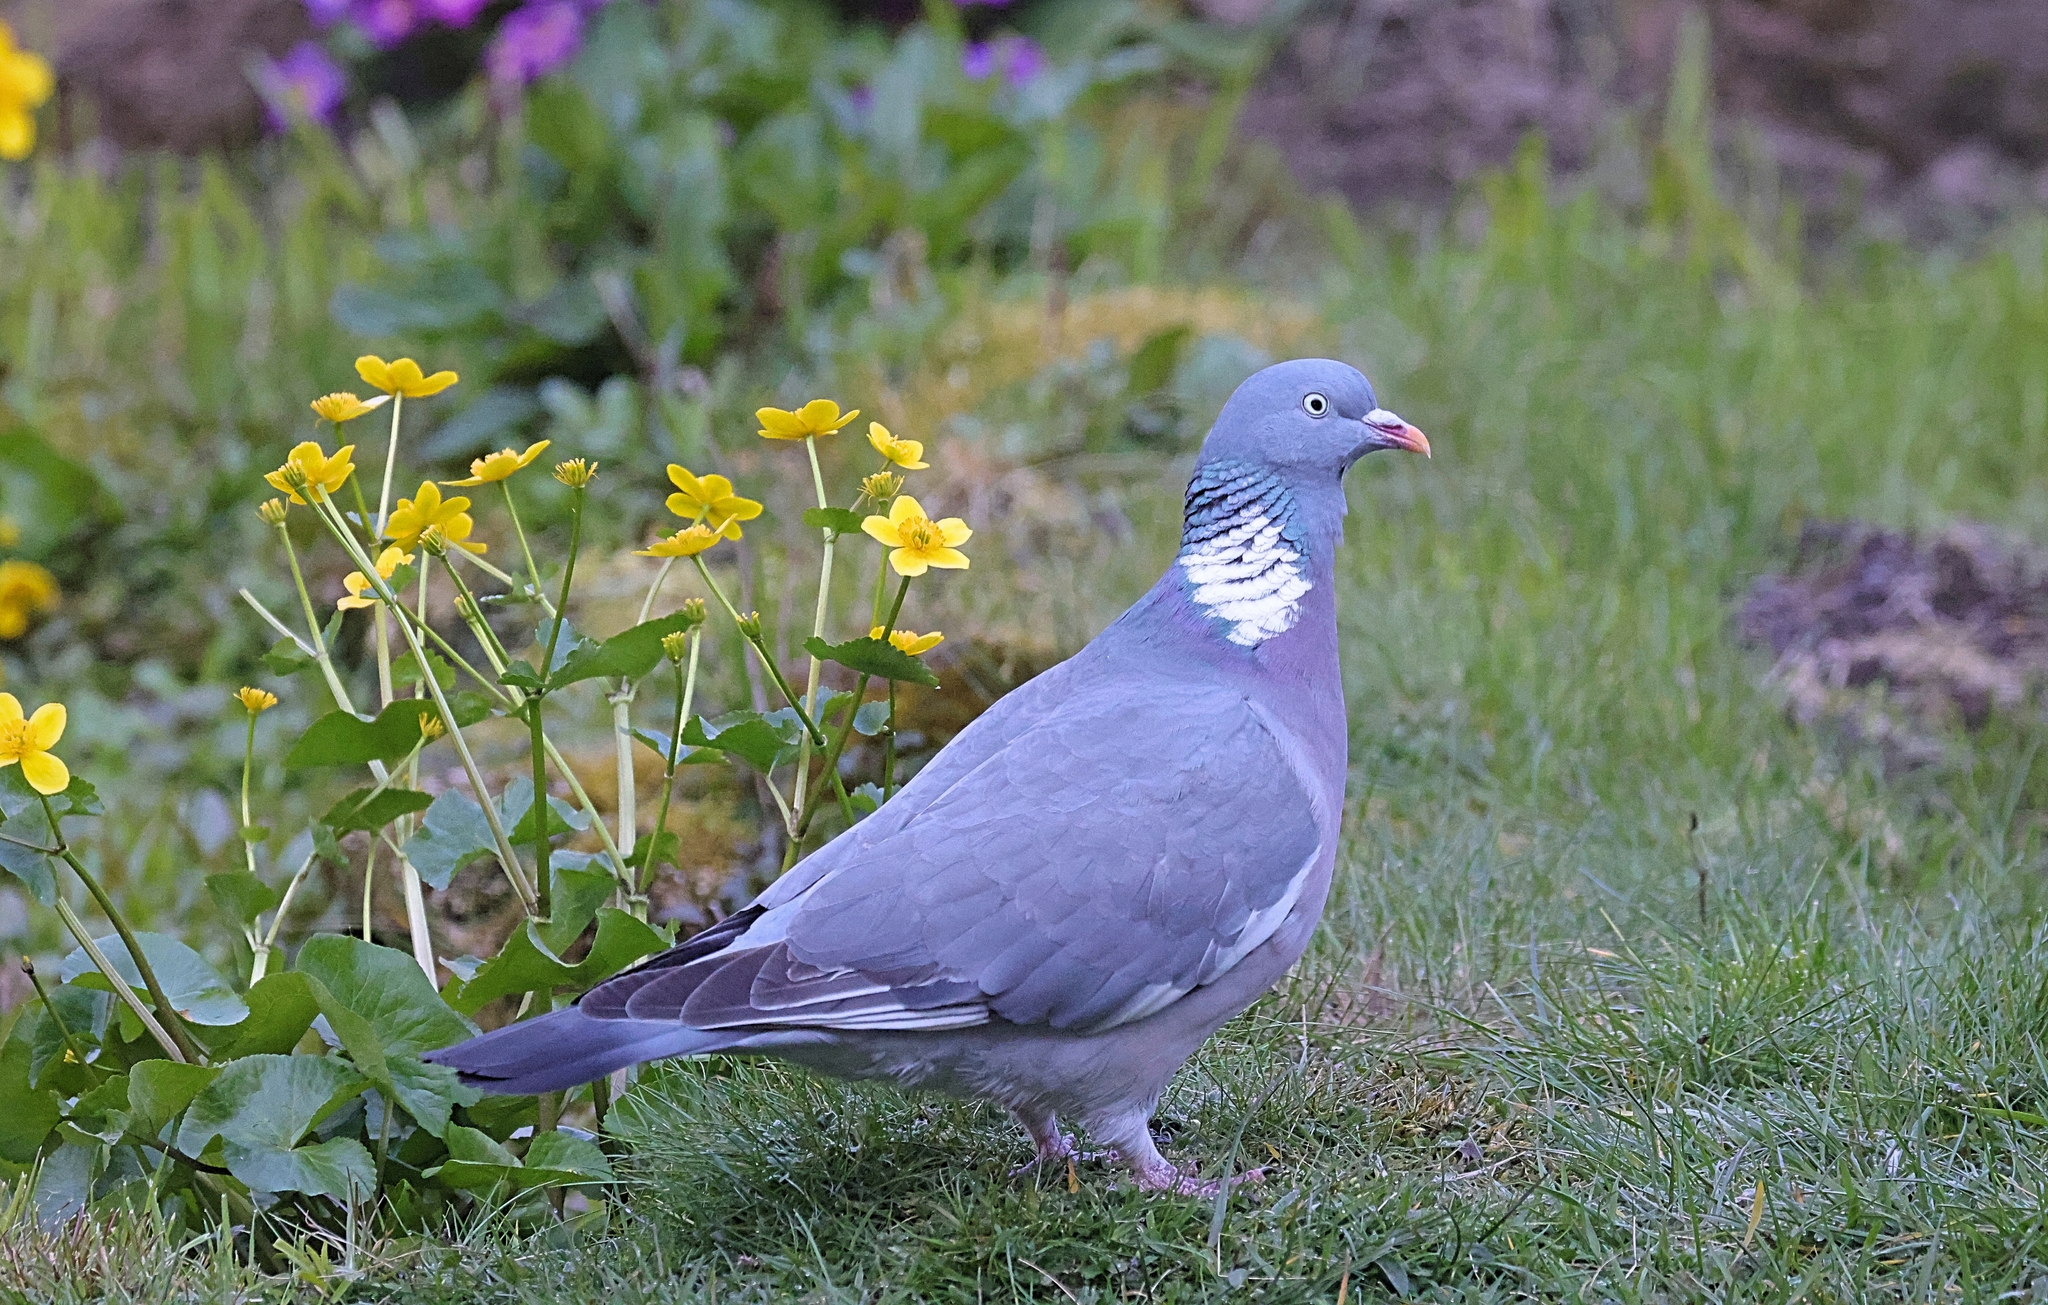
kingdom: Animalia
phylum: Chordata
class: Aves
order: Columbiformes
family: Columbidae
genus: Columba
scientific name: Columba palumbus
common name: Common wood pigeon
